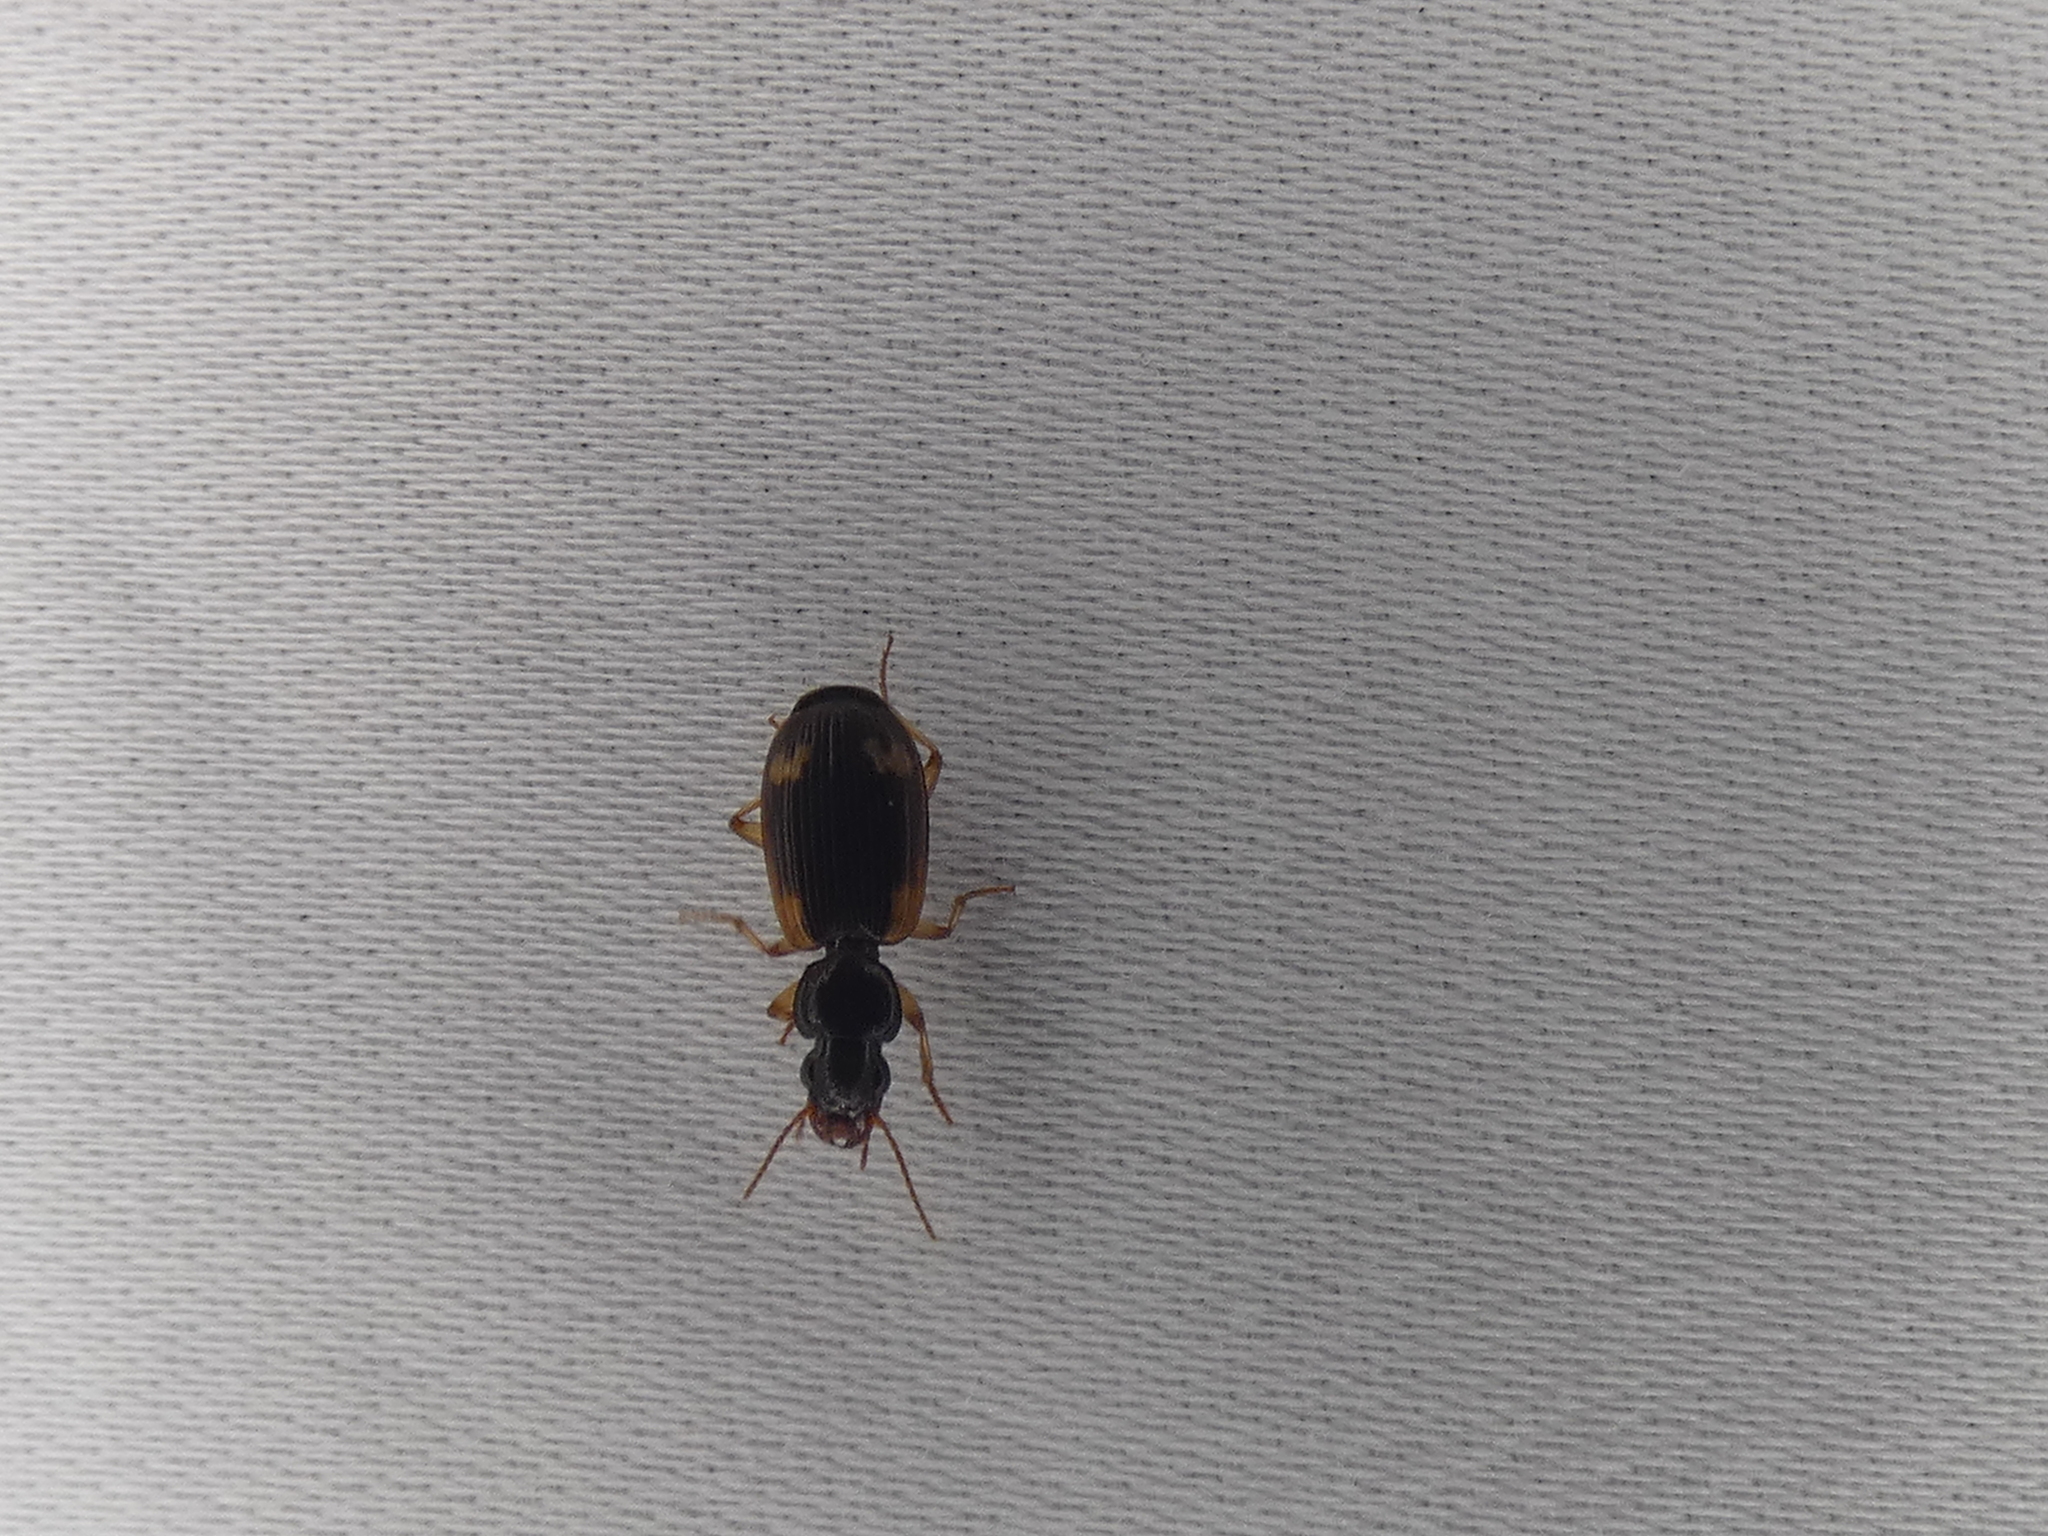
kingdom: Animalia
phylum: Arthropoda
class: Insecta
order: Coleoptera
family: Carabidae
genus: Apenes
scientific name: Apenes sinuata
